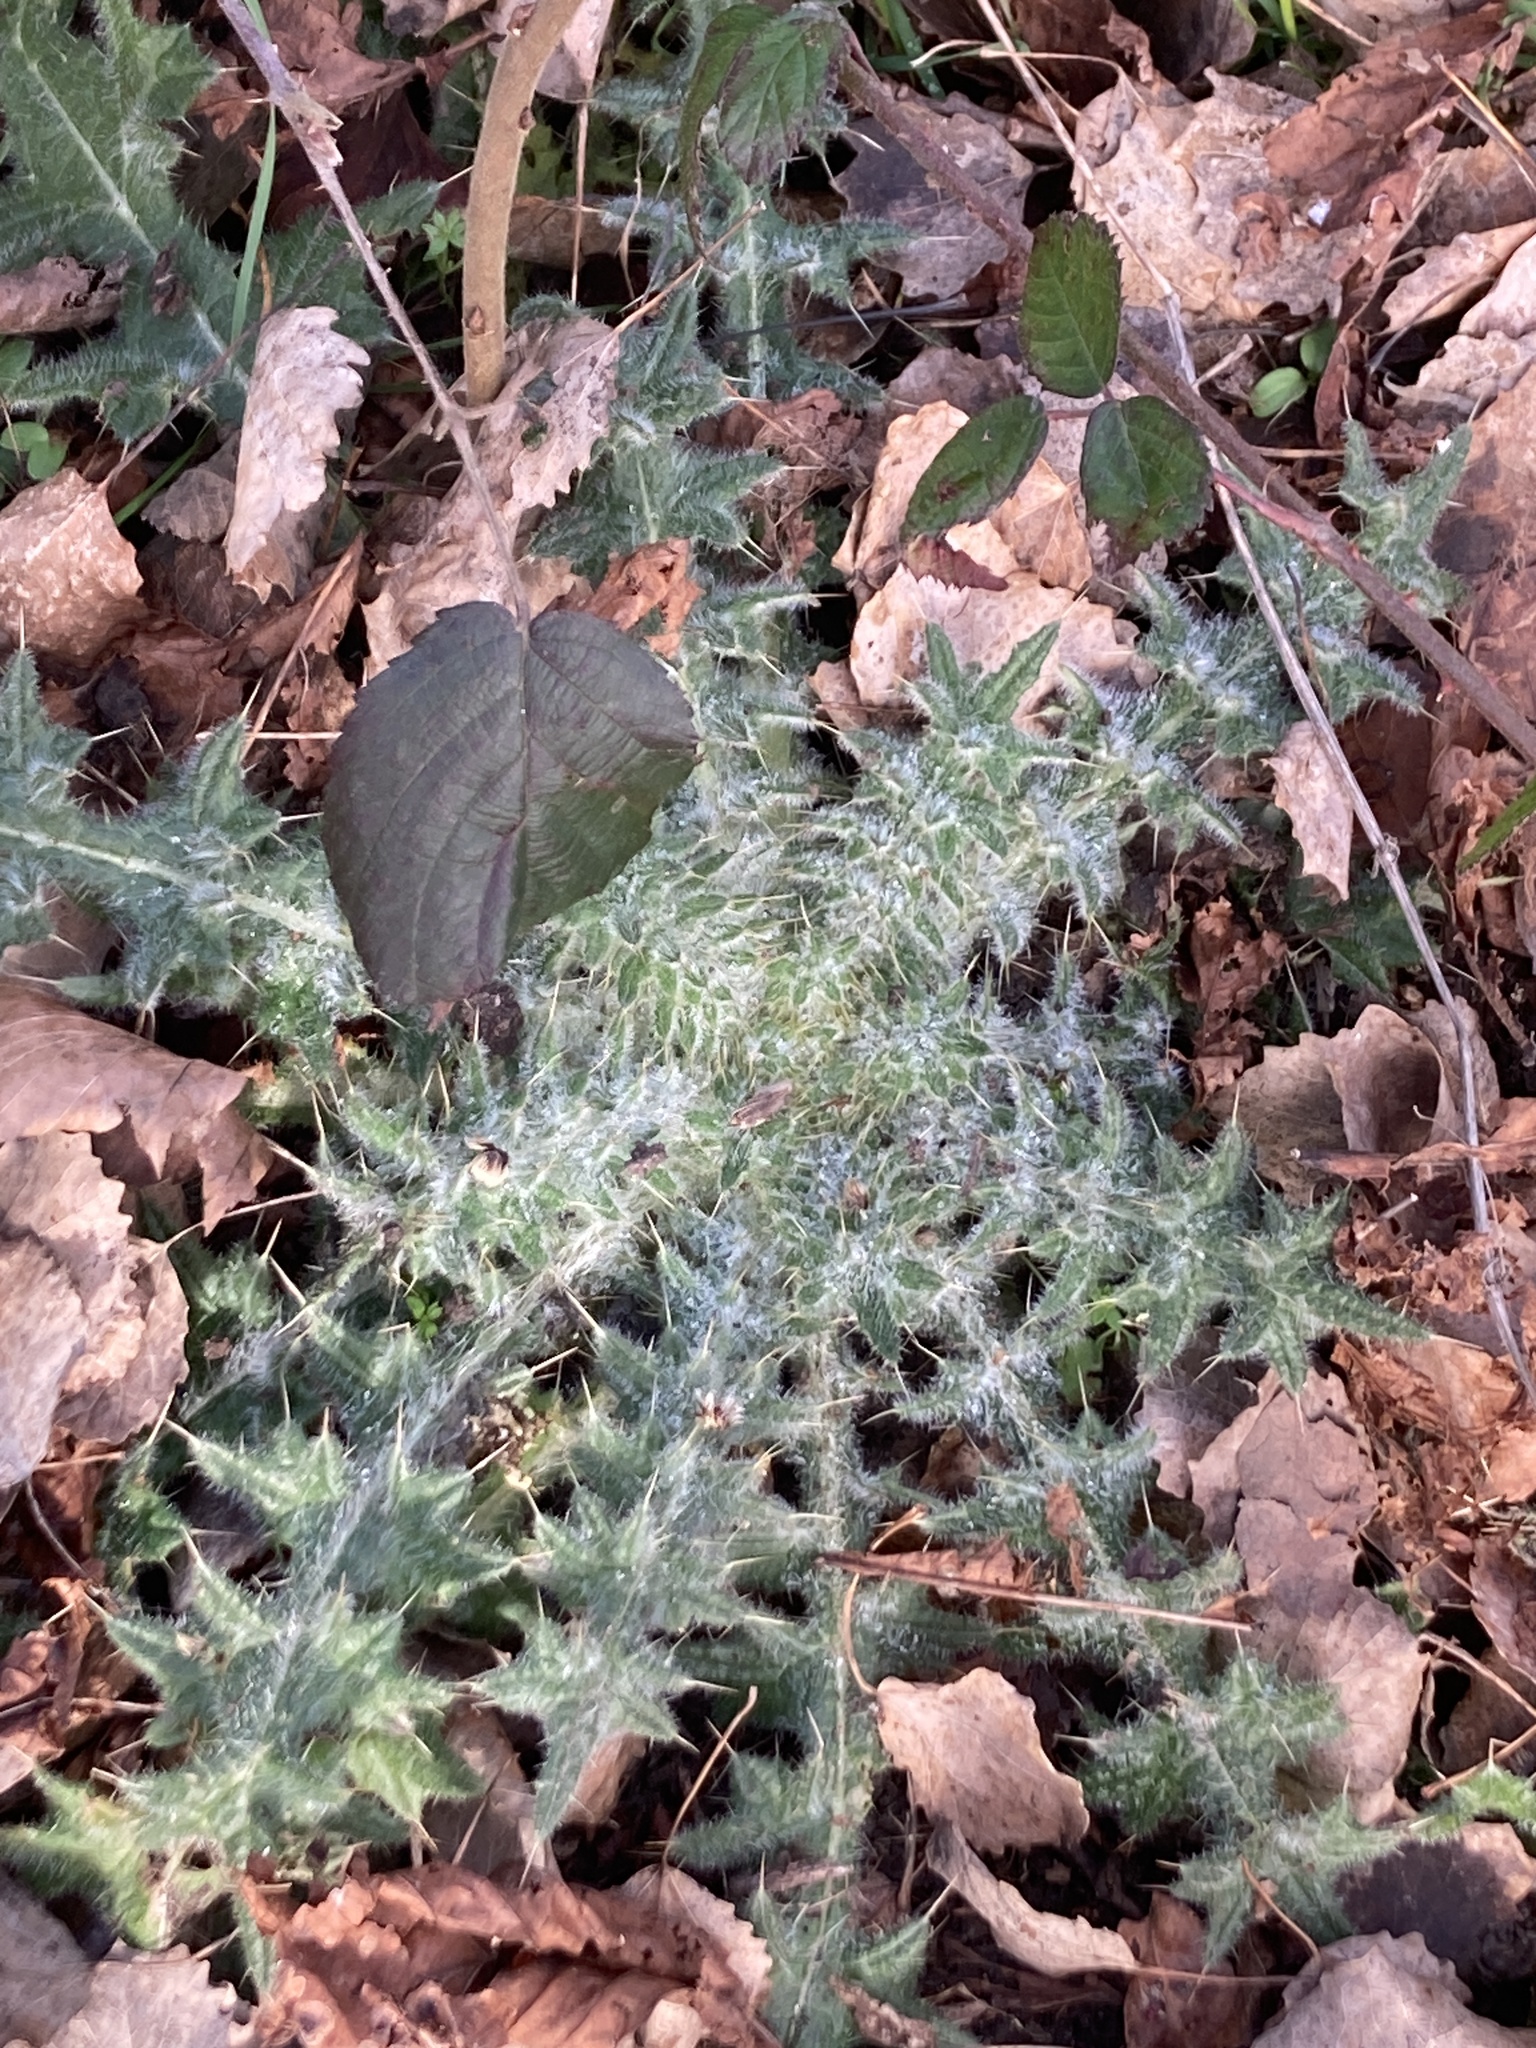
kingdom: Plantae
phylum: Tracheophyta
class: Magnoliopsida
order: Asterales
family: Asteraceae
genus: Cirsium
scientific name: Cirsium vulgare
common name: Bull thistle
